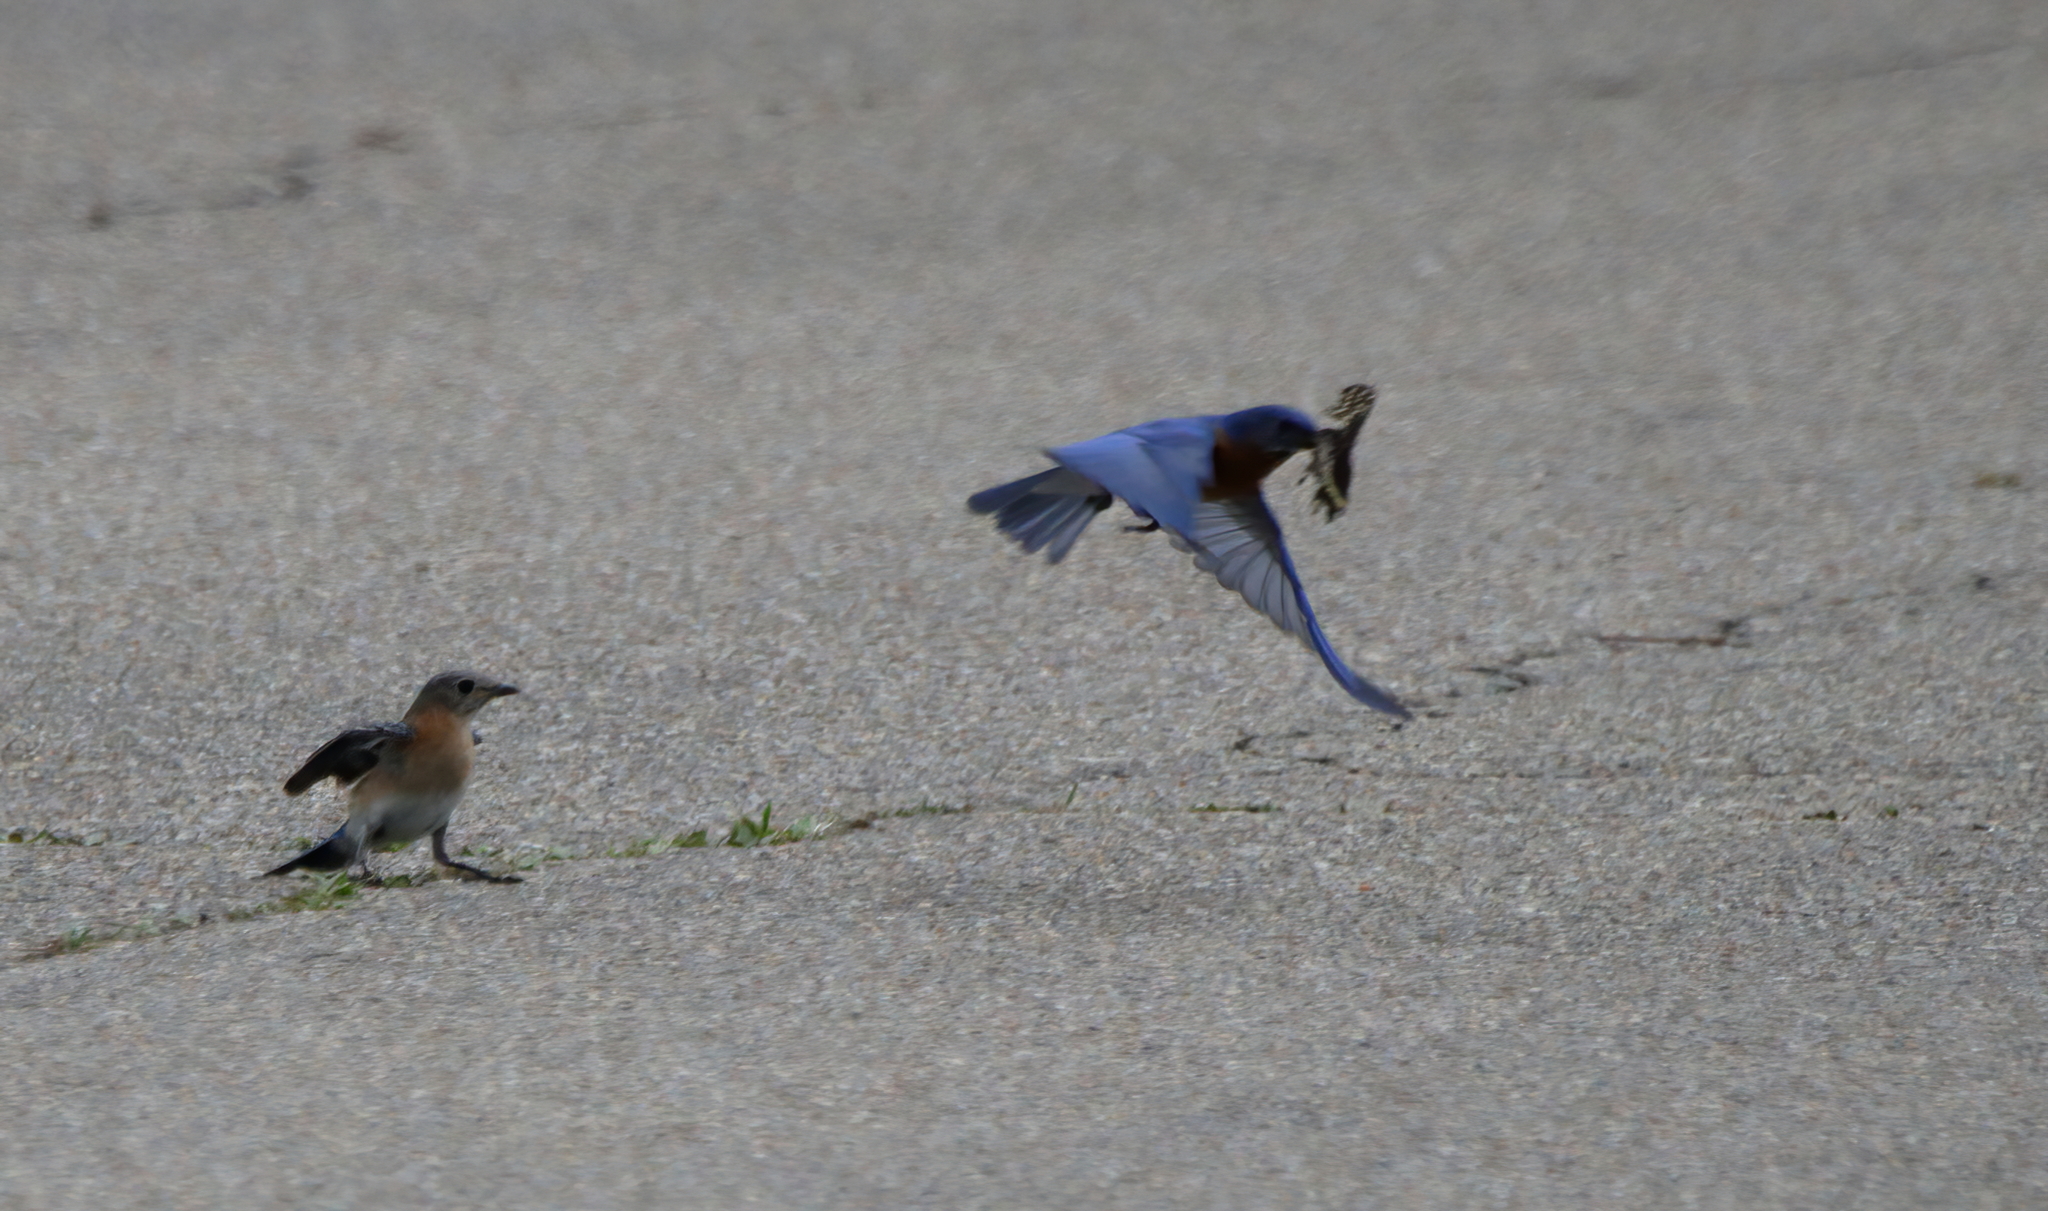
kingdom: Animalia
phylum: Chordata
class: Aves
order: Passeriformes
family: Turdidae
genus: Sialia
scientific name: Sialia sialis
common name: Eastern bluebird
